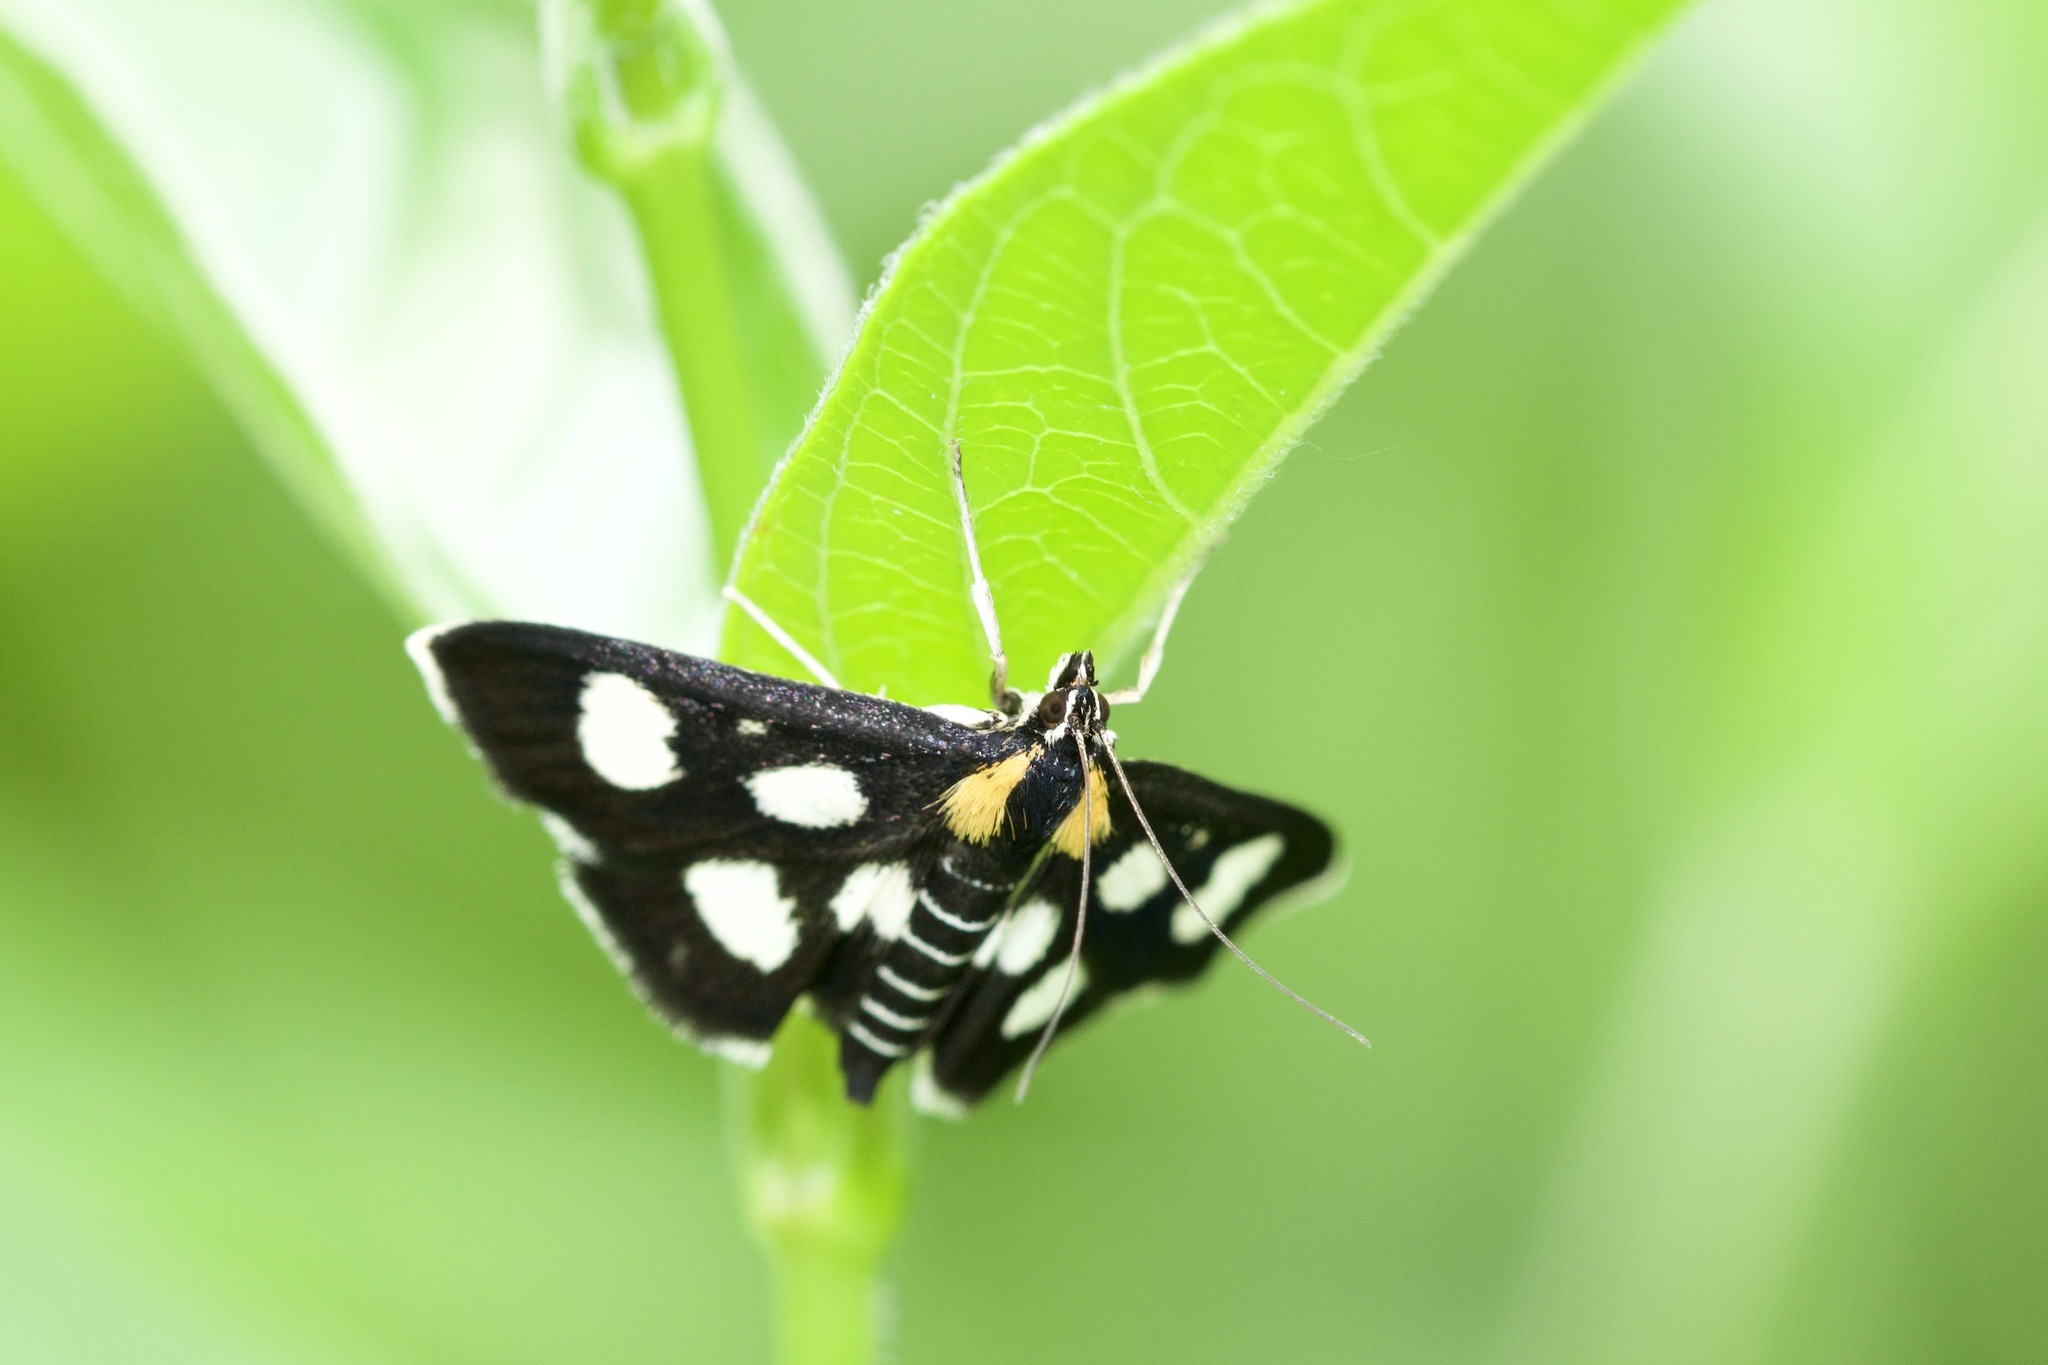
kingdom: Animalia
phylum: Arthropoda
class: Insecta
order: Lepidoptera
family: Crambidae
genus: Anania
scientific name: Anania funebris
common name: White-spotted sable moth
